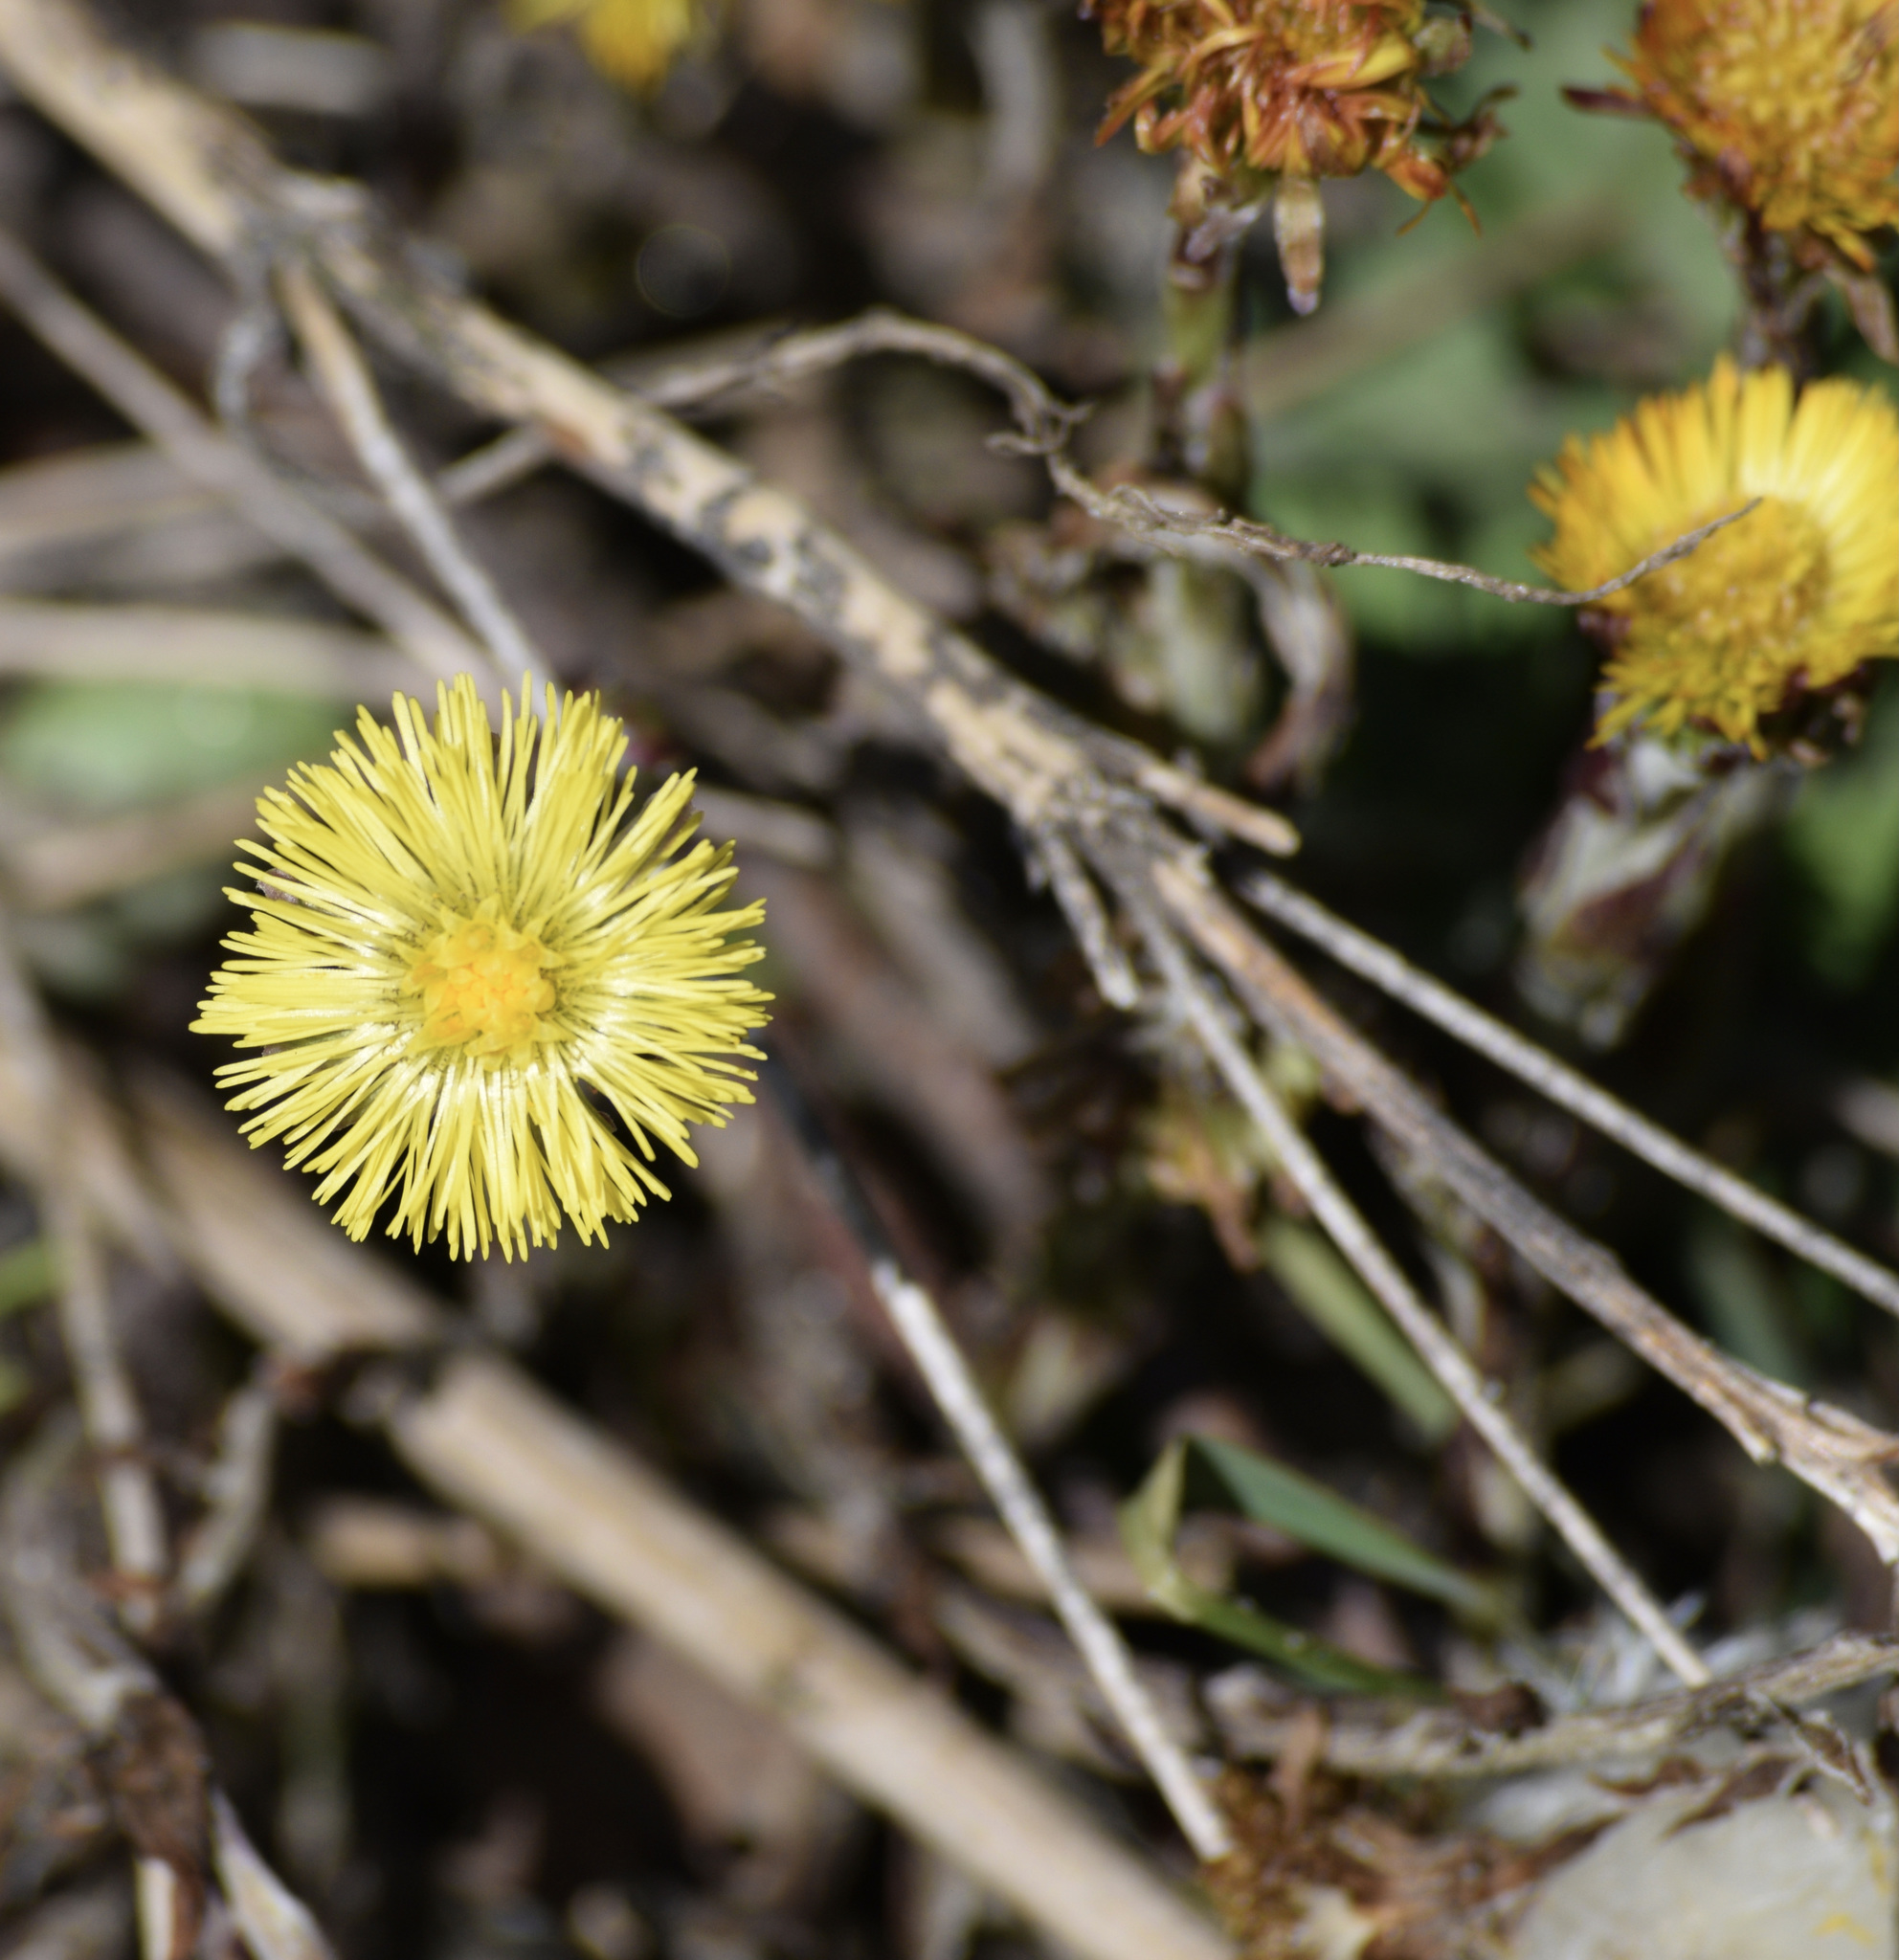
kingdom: Plantae
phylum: Tracheophyta
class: Magnoliopsida
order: Asterales
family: Asteraceae
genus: Tussilago
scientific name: Tussilago farfara
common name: Coltsfoot
